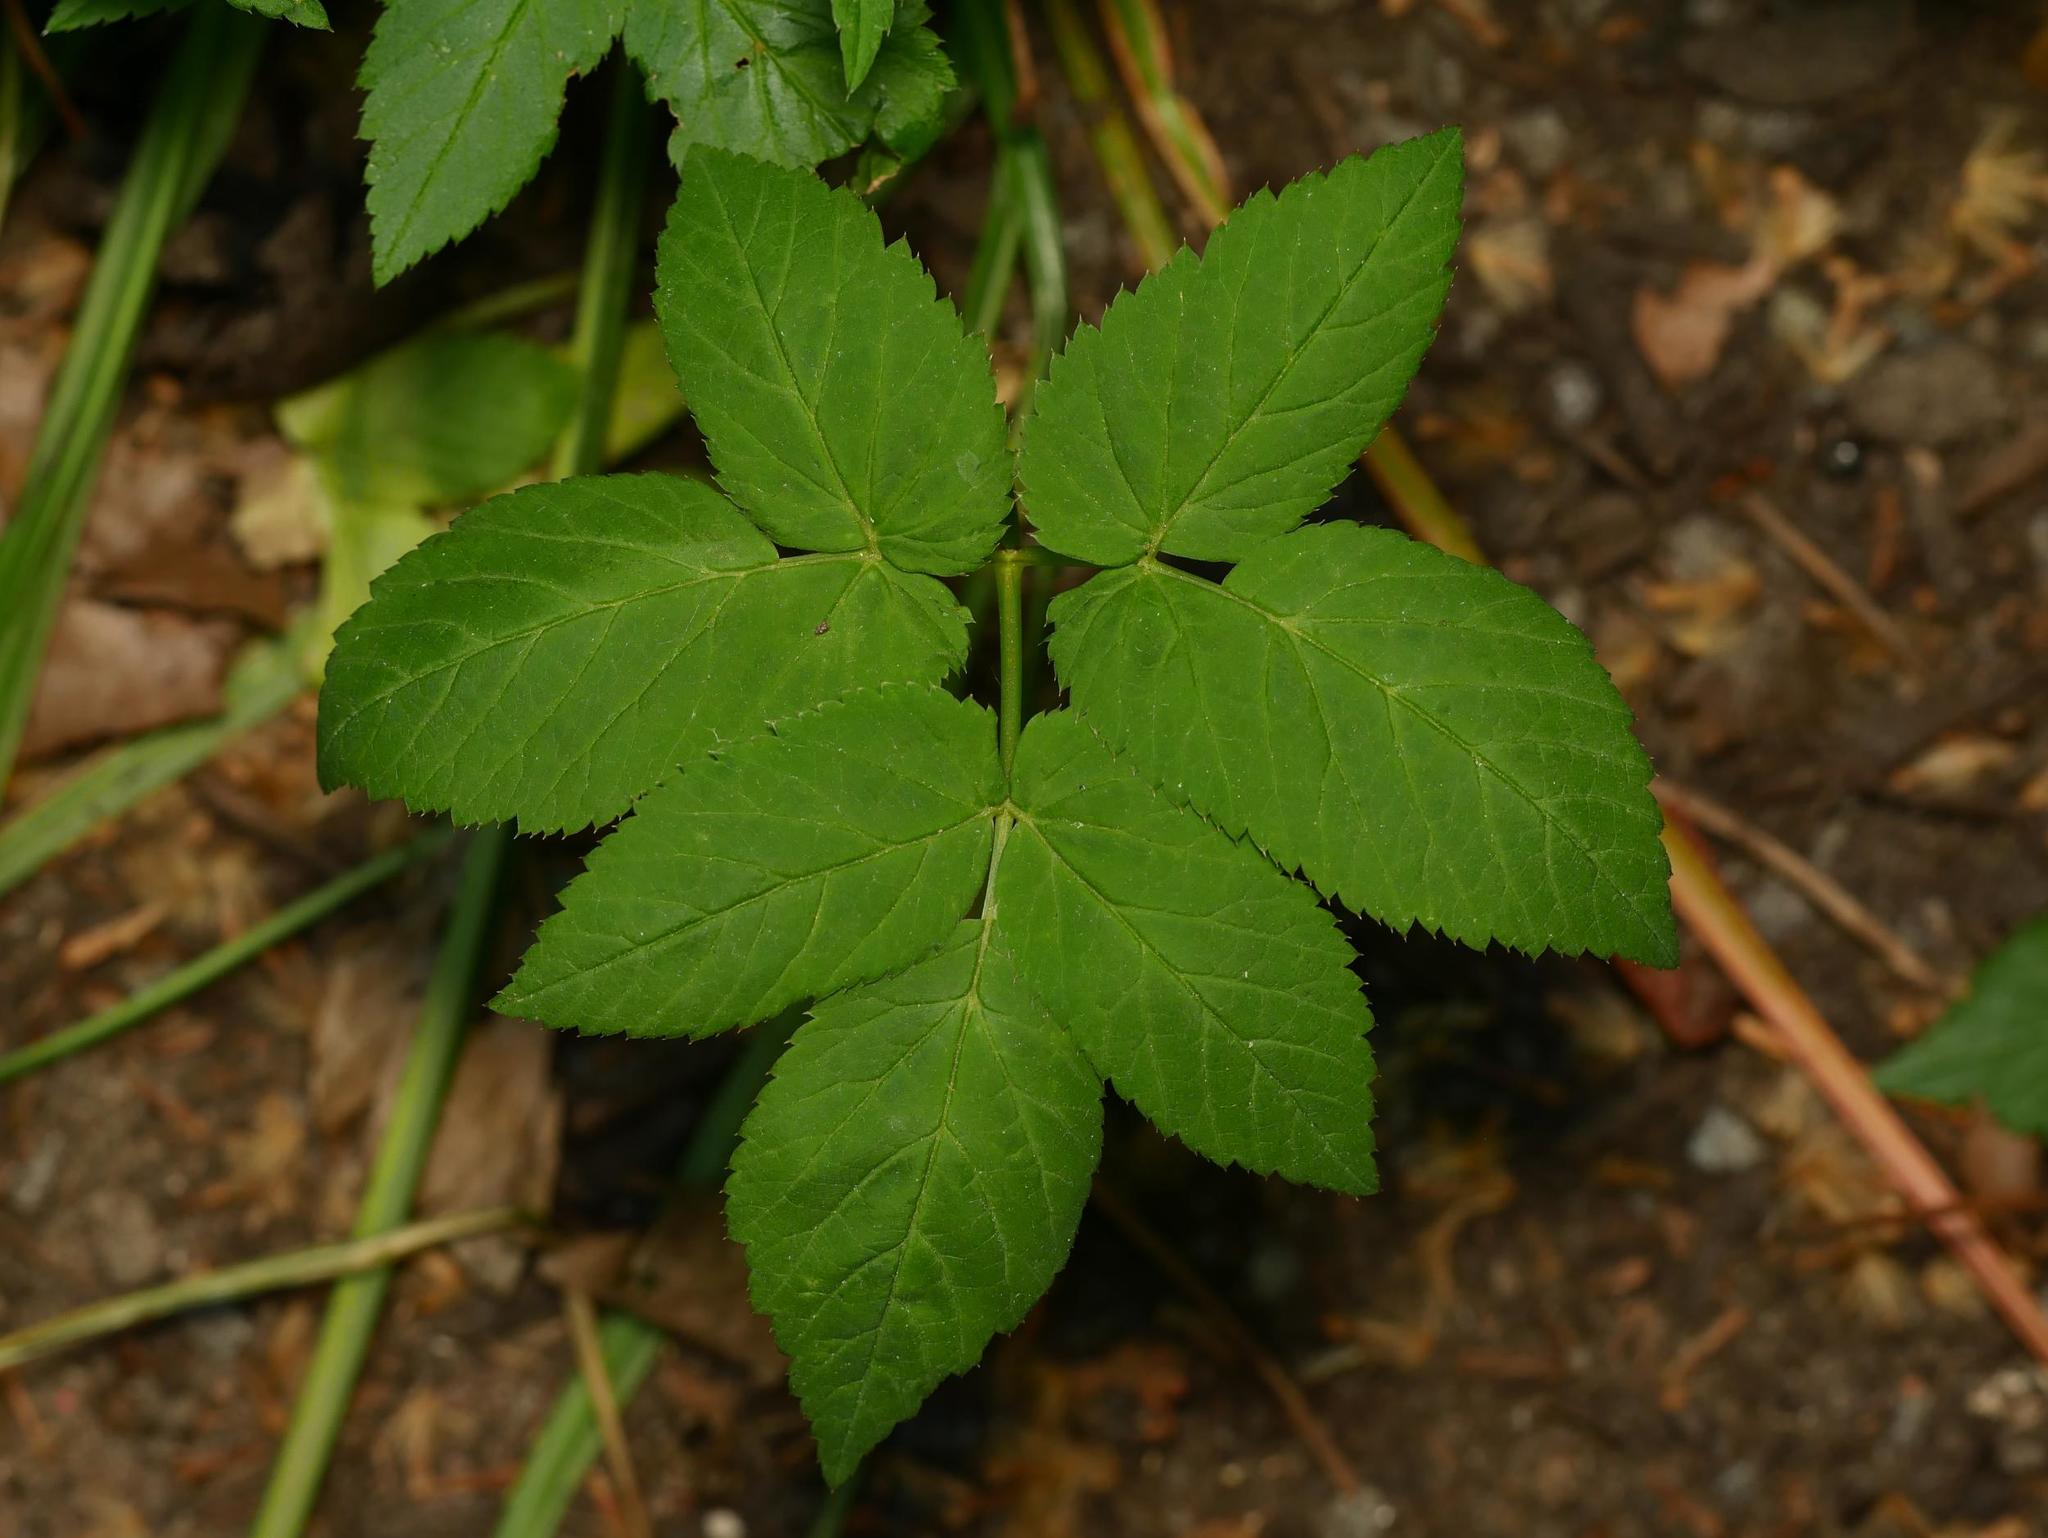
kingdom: Plantae
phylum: Tracheophyta
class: Magnoliopsida
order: Apiales
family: Apiaceae
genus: Aegopodium
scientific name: Aegopodium podagraria
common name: Ground-elder
